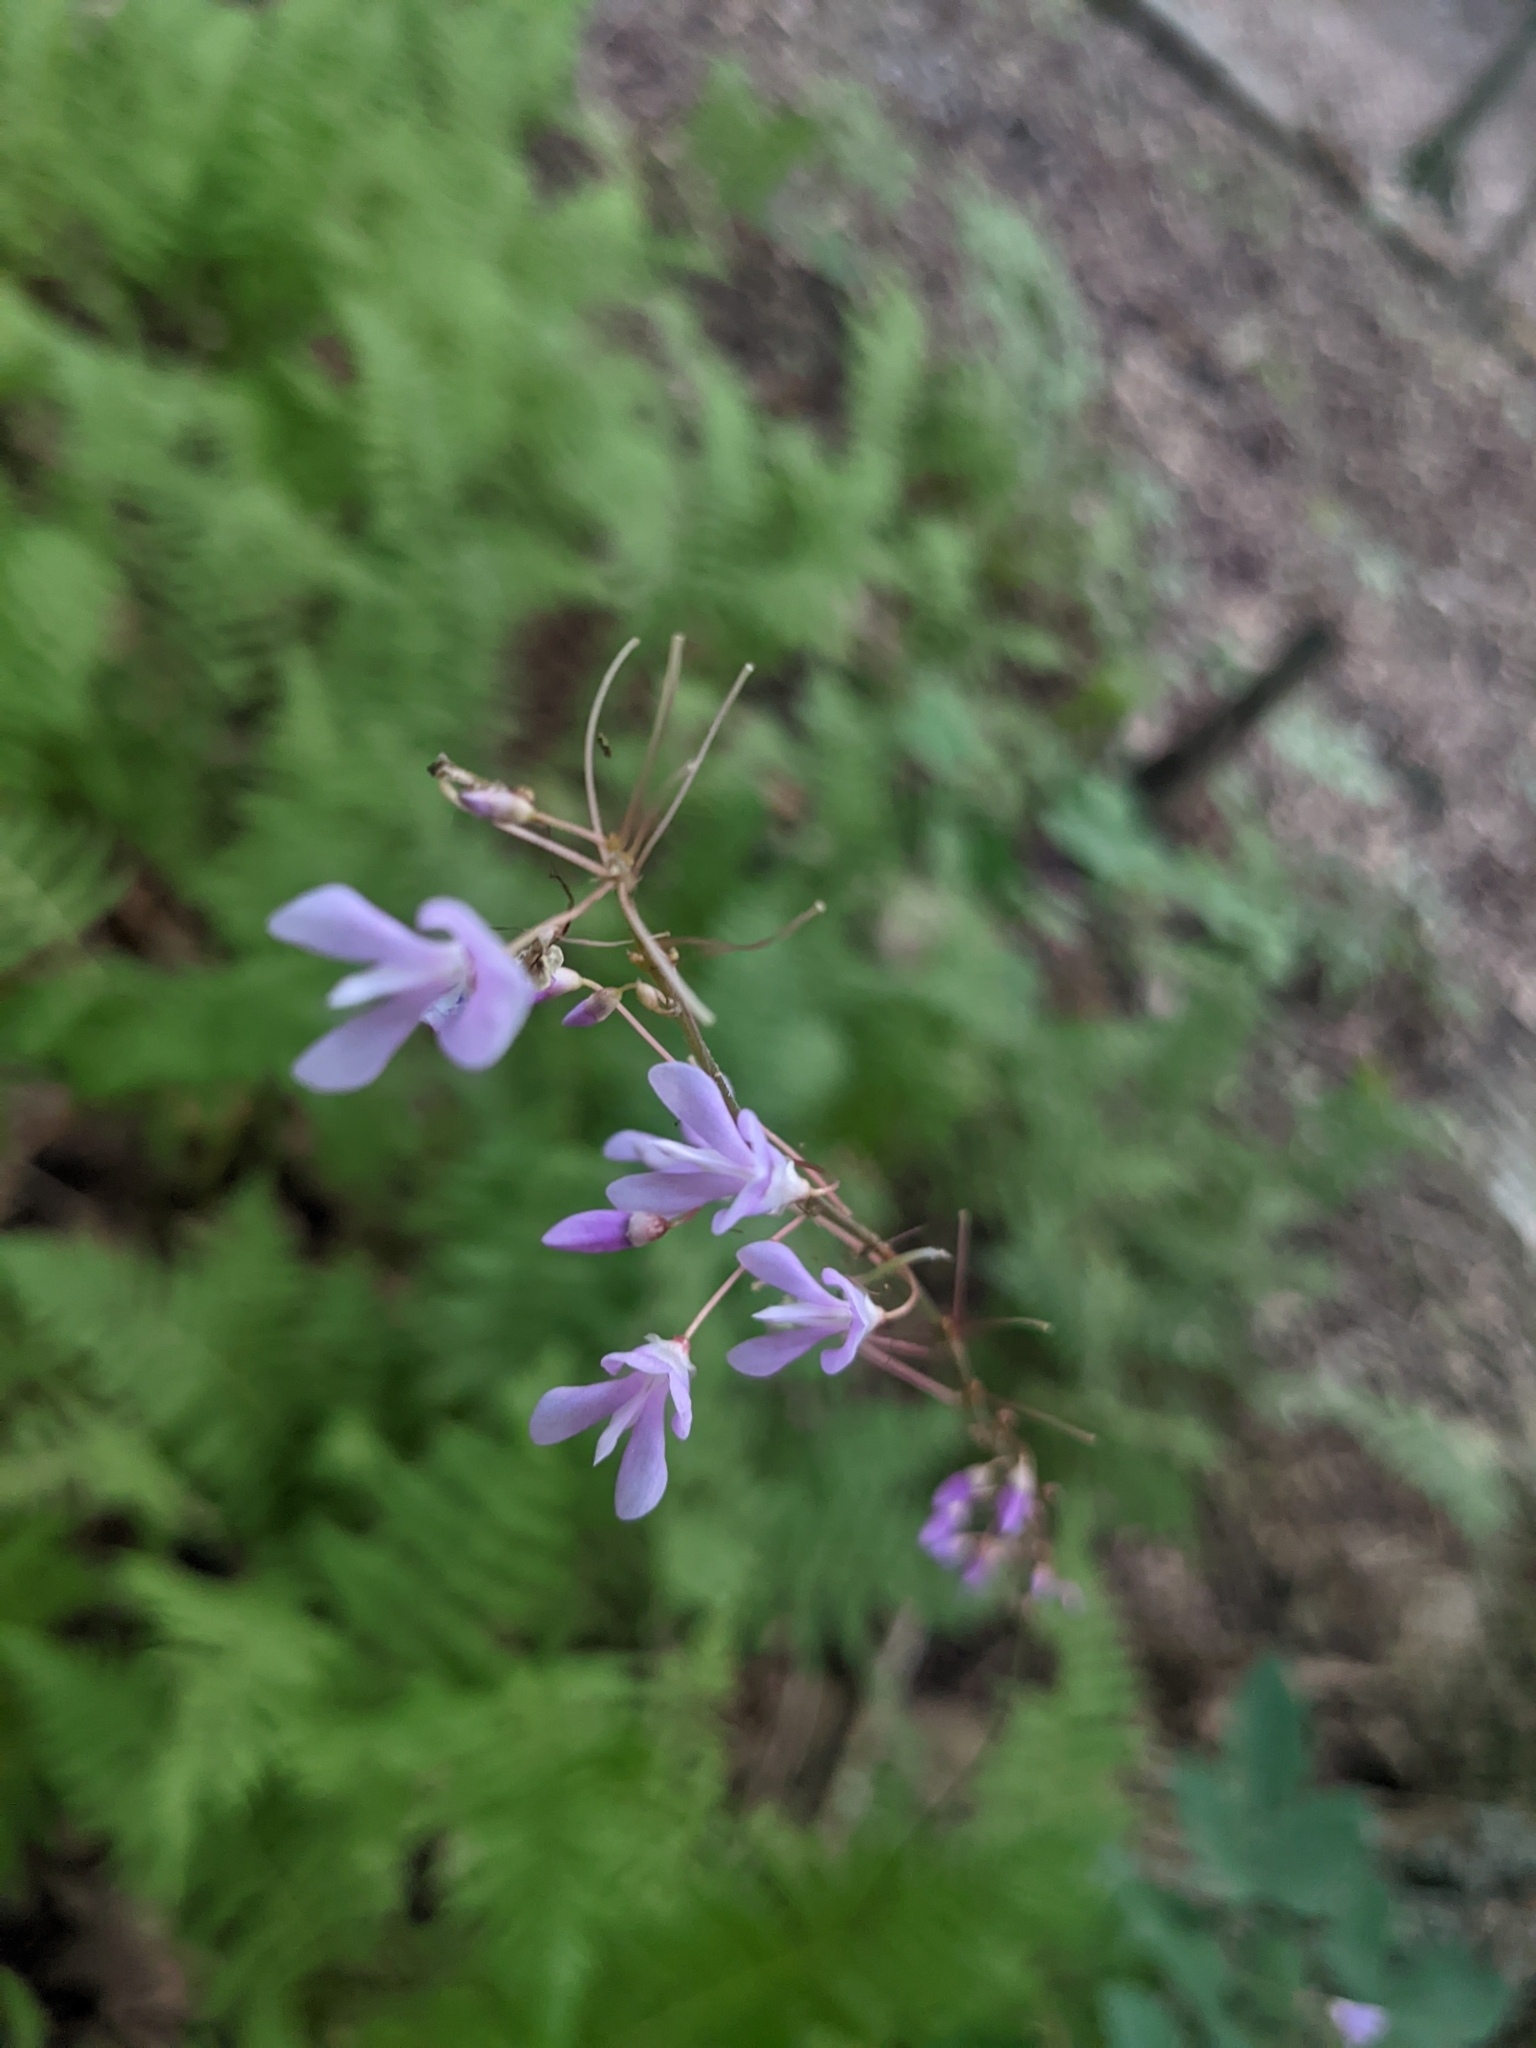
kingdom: Plantae
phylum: Tracheophyta
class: Magnoliopsida
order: Fabales
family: Fabaceae
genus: Hylodesmum
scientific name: Hylodesmum nudiflorum
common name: Bare-stemmed tick-trefoil
